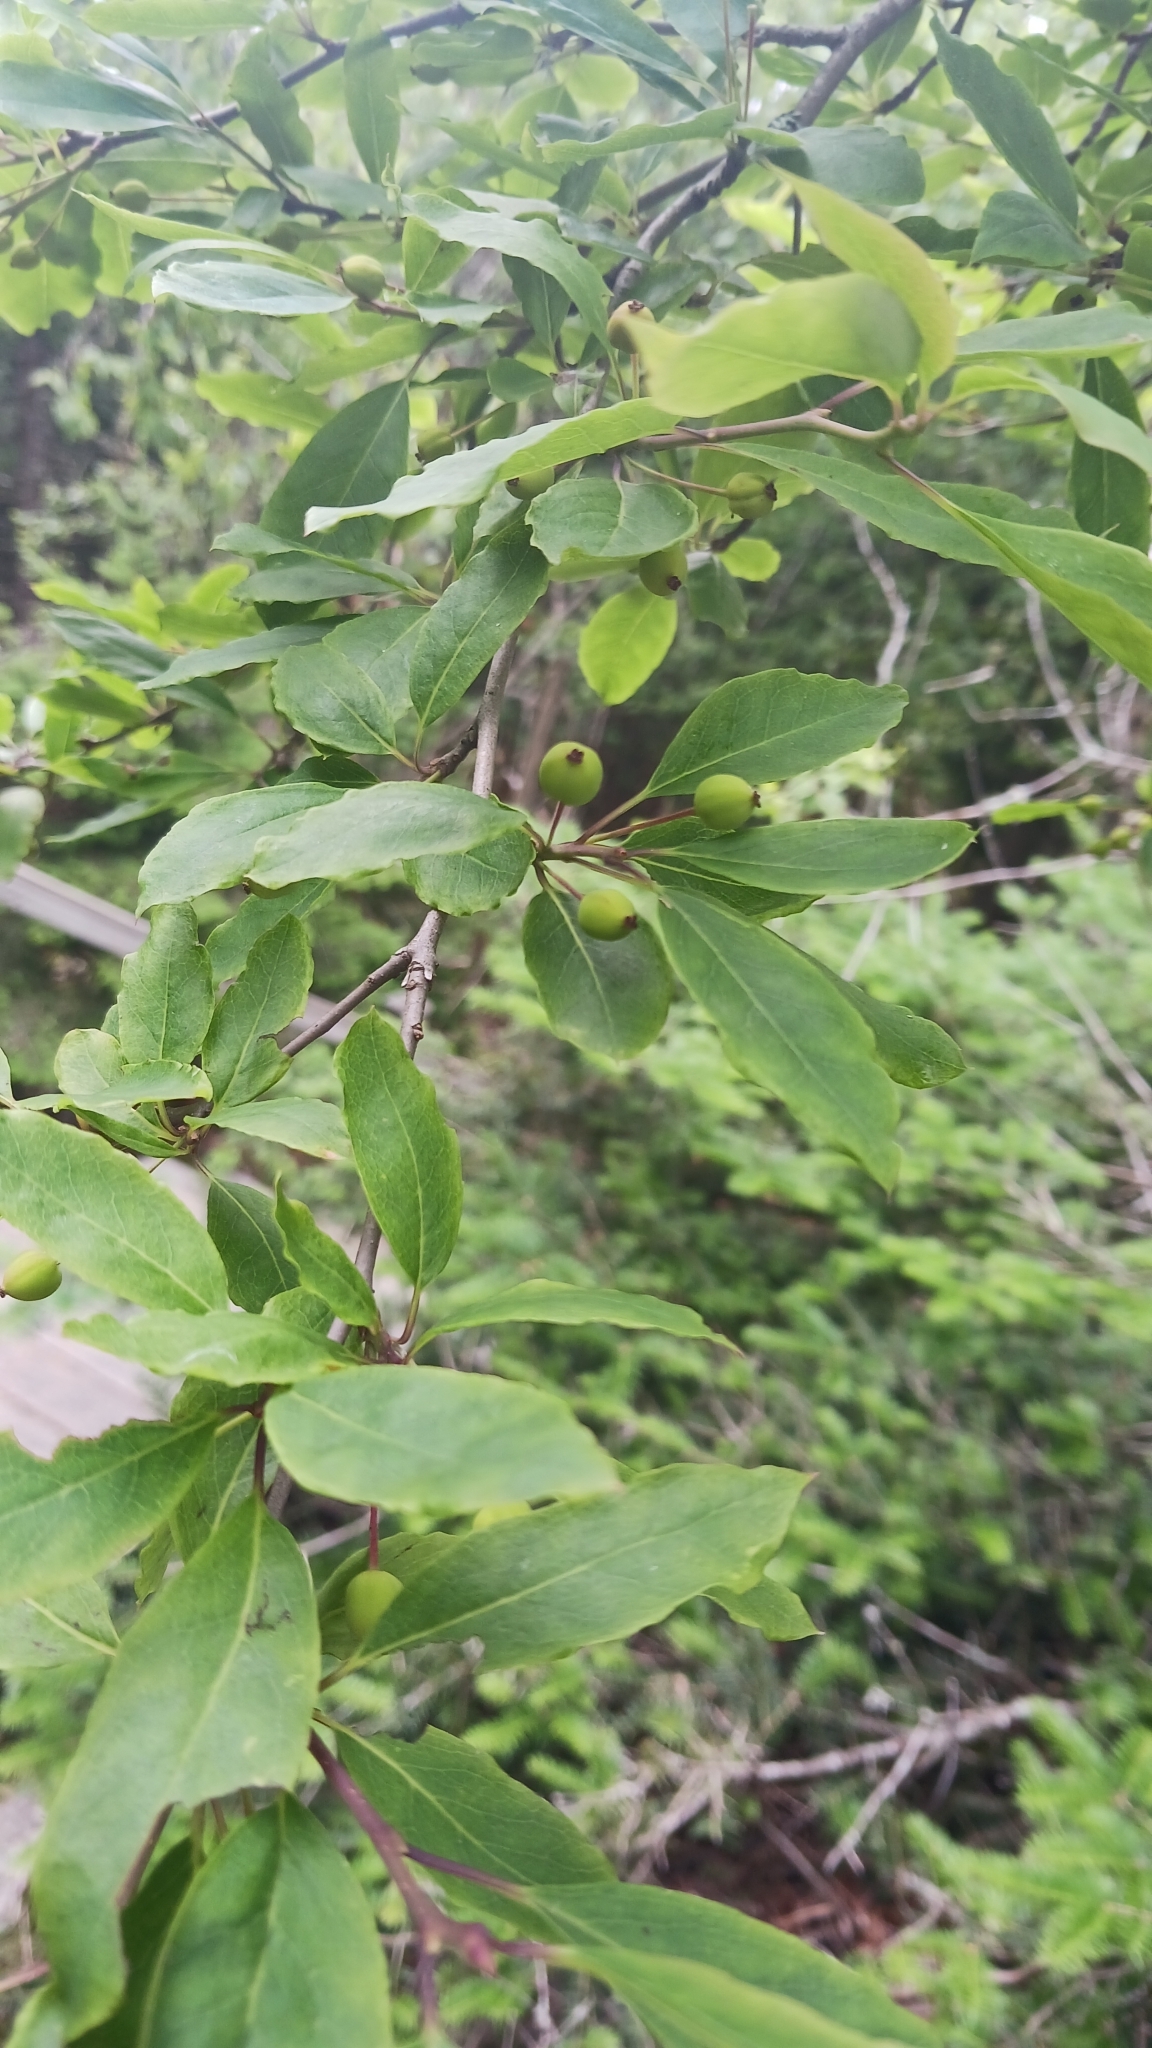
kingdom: Plantae
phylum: Tracheophyta
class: Magnoliopsida
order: Aquifoliales
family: Aquifoliaceae
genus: Ilex
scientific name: Ilex mucronata
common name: Catberry
